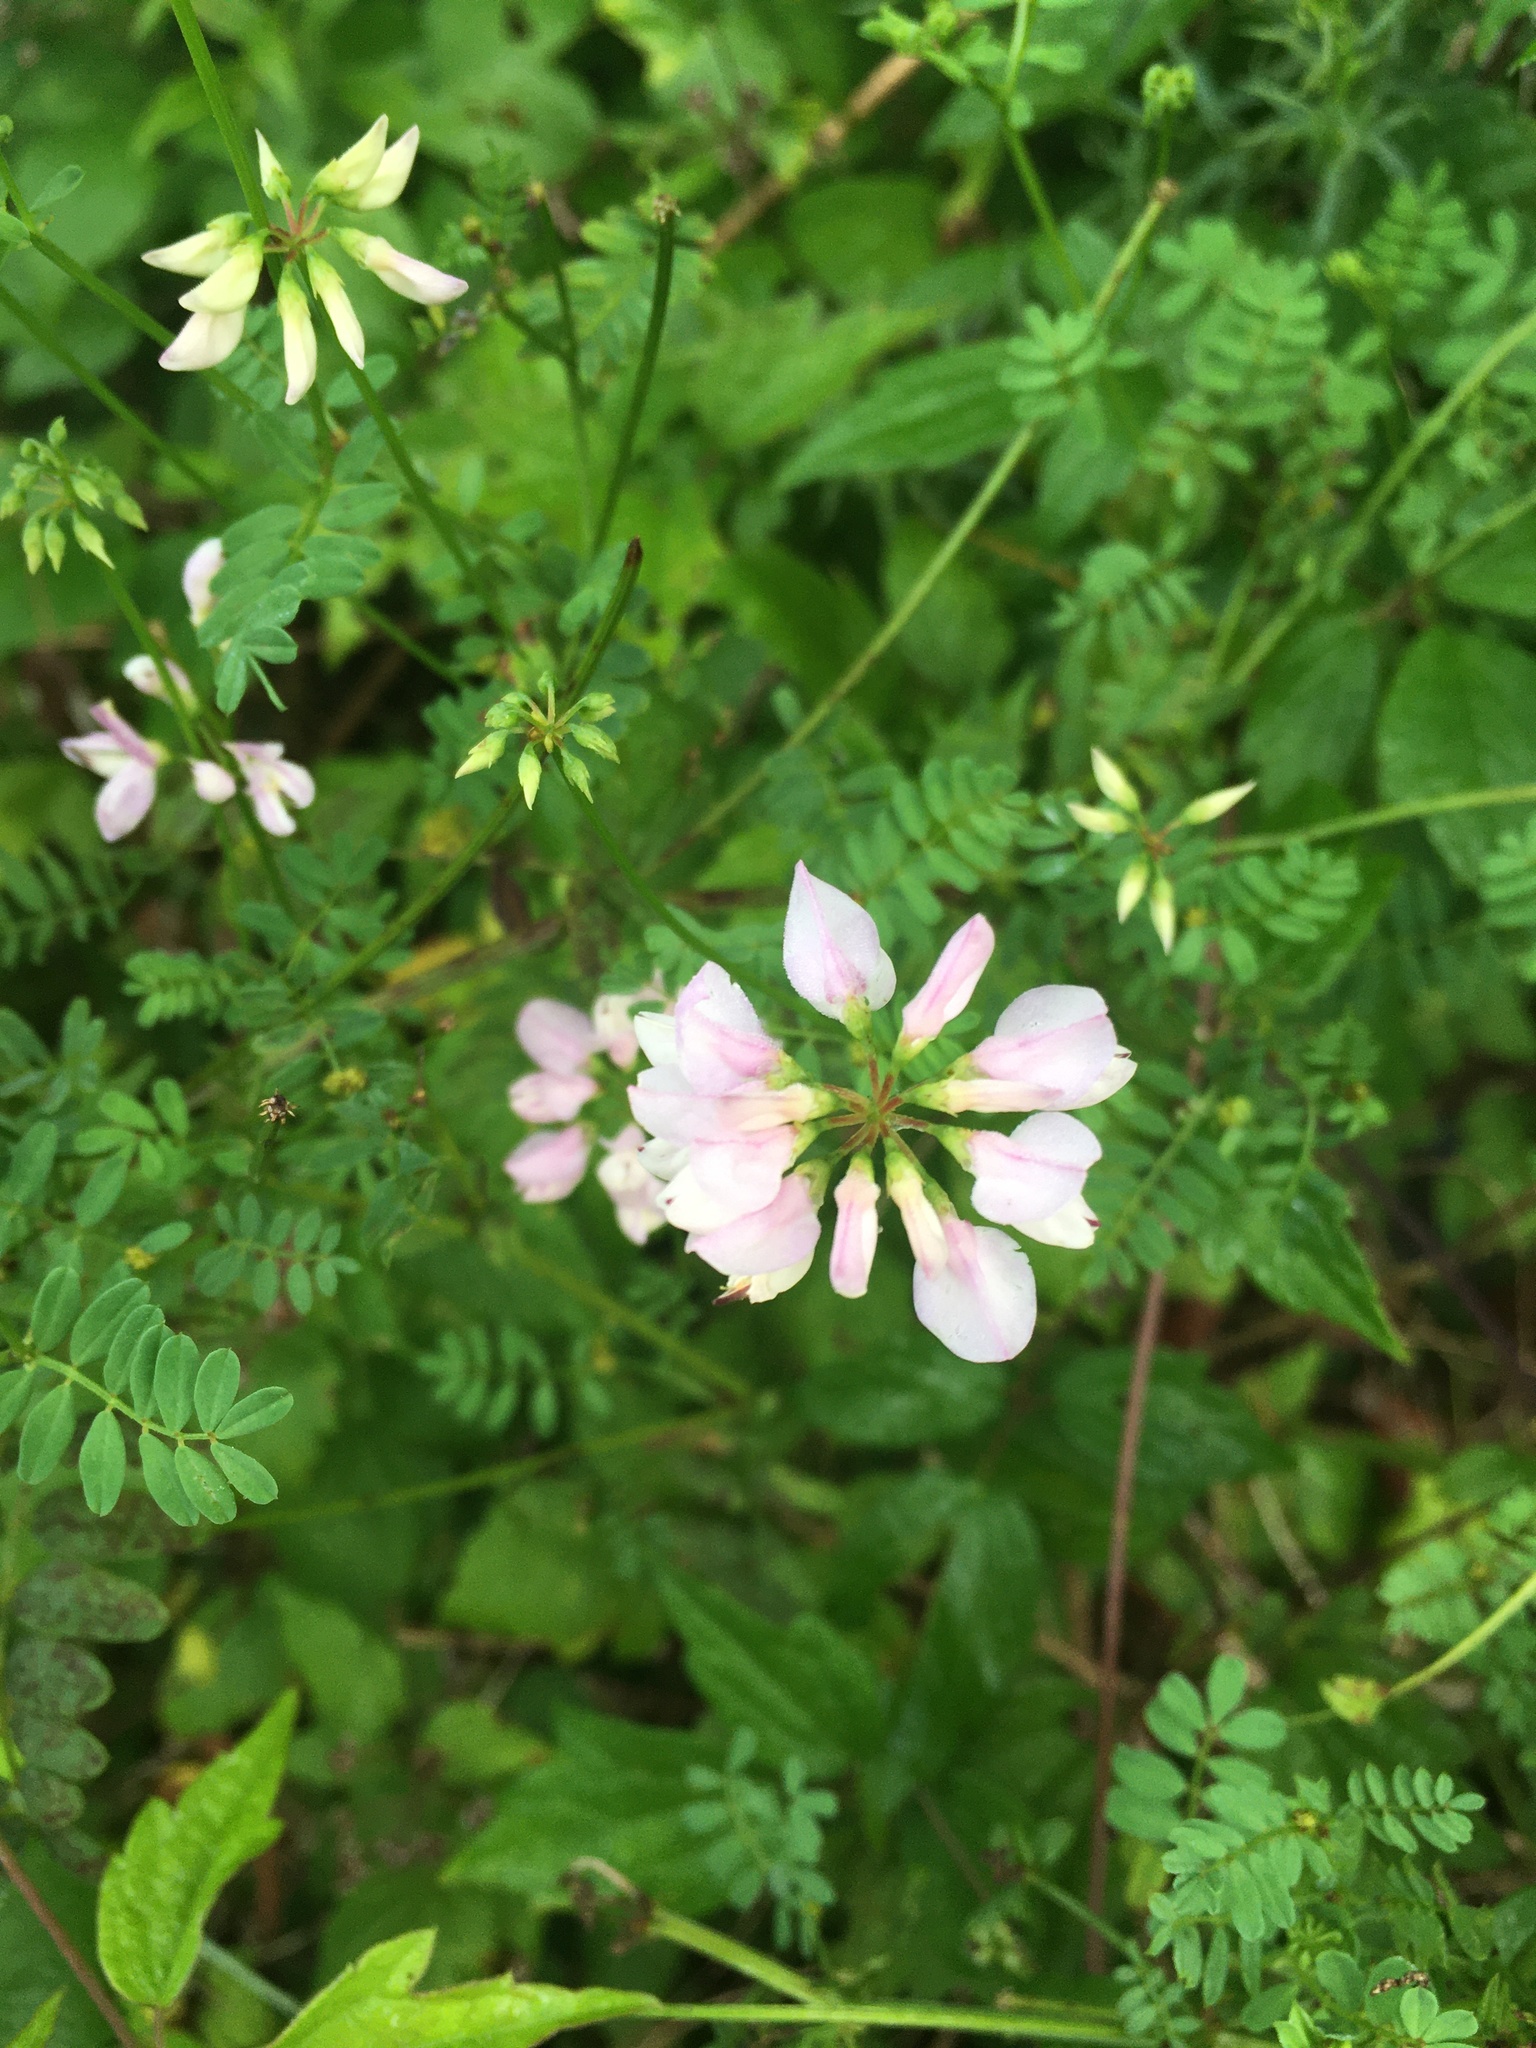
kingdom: Plantae
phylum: Tracheophyta
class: Magnoliopsida
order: Fabales
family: Fabaceae
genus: Coronilla
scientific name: Coronilla varia
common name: Crownvetch
